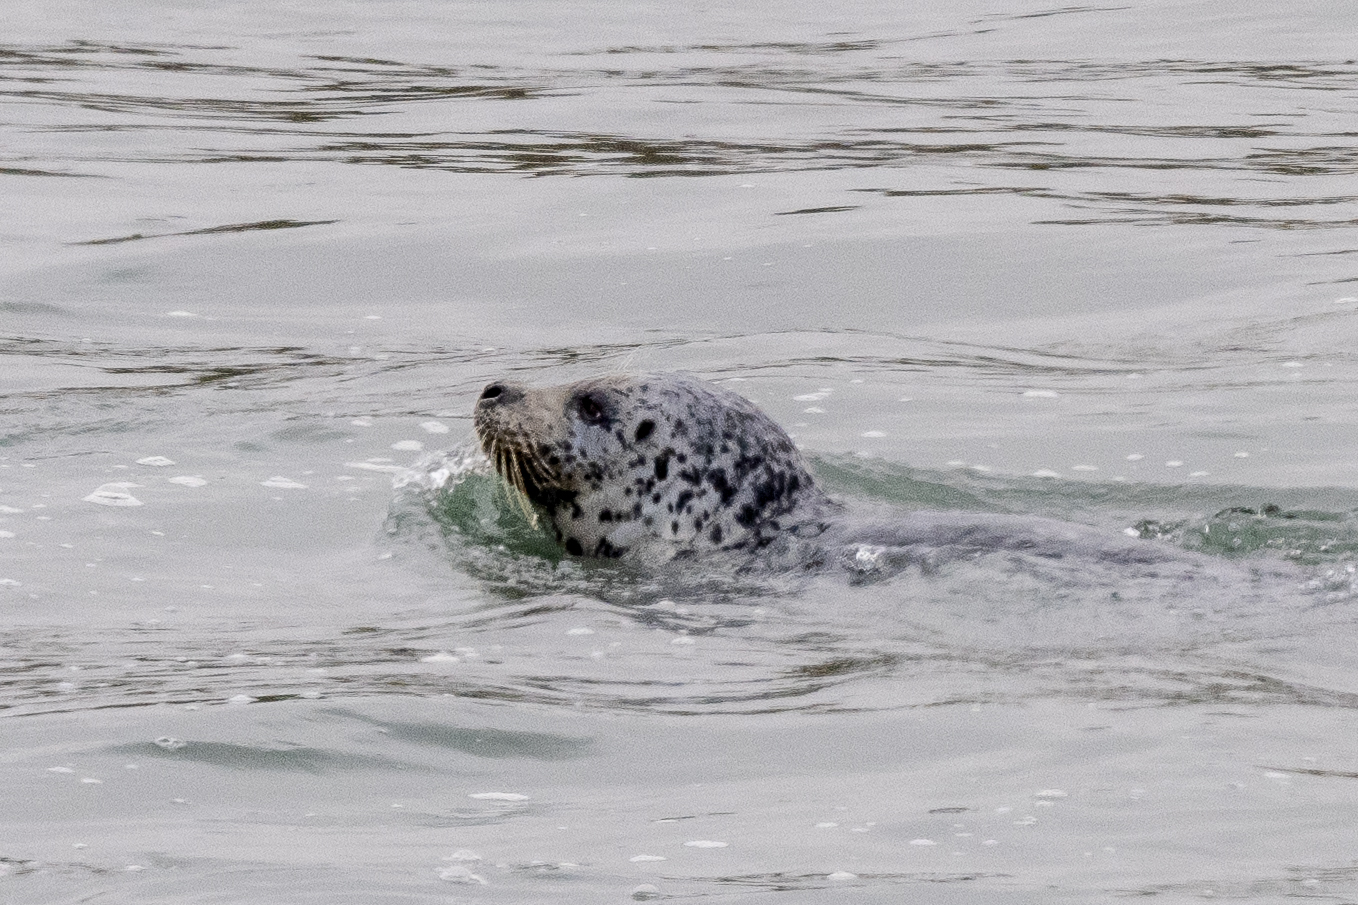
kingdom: Animalia
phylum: Chordata
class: Mammalia
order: Carnivora
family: Phocidae
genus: Phoca
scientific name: Phoca vitulina
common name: Harbor seal
